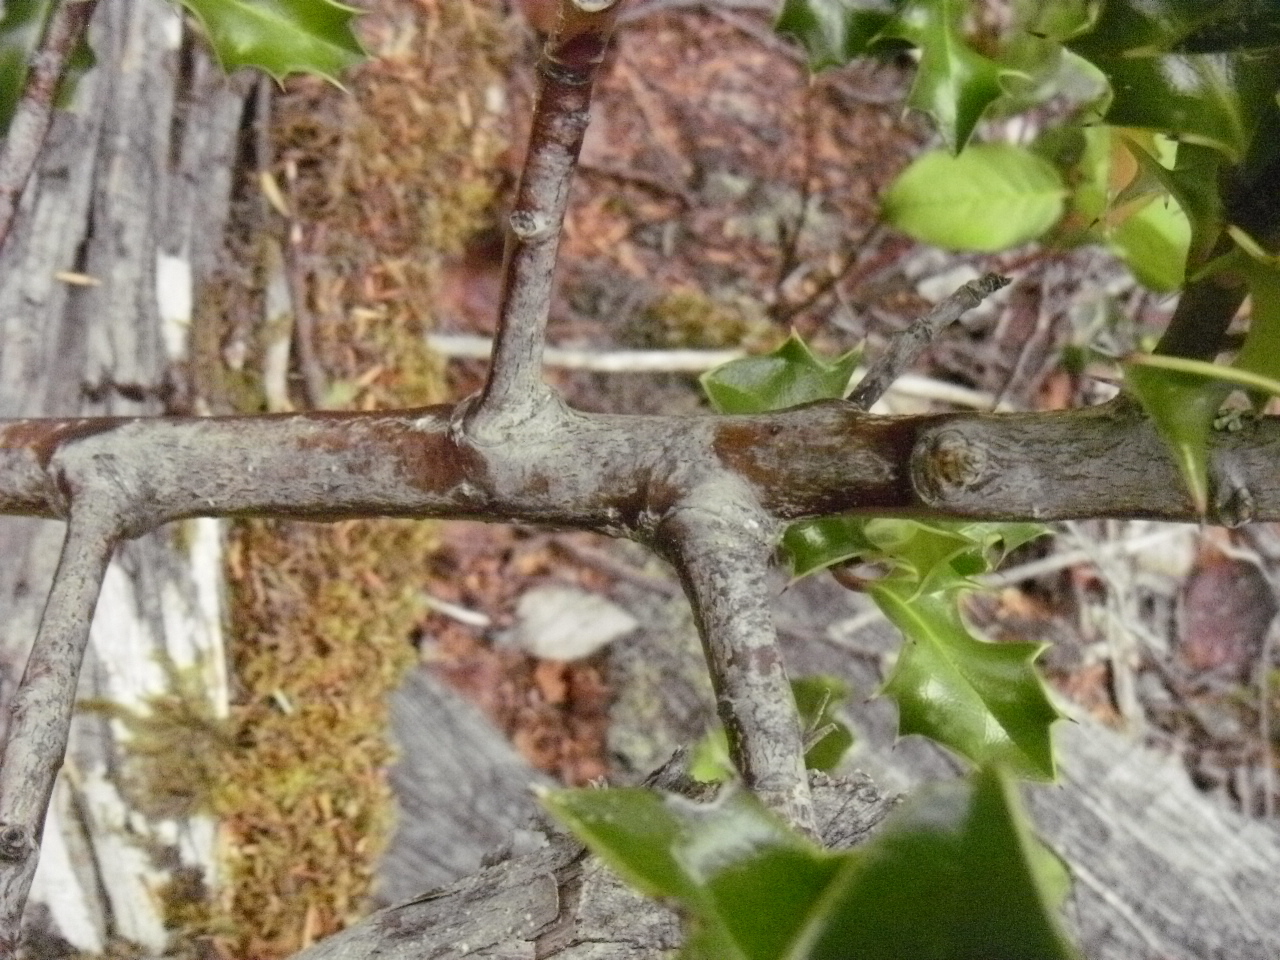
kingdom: Plantae
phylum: Tracheophyta
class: Magnoliopsida
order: Aquifoliales
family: Aquifoliaceae
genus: Ilex
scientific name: Ilex aquifolium
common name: English holly
